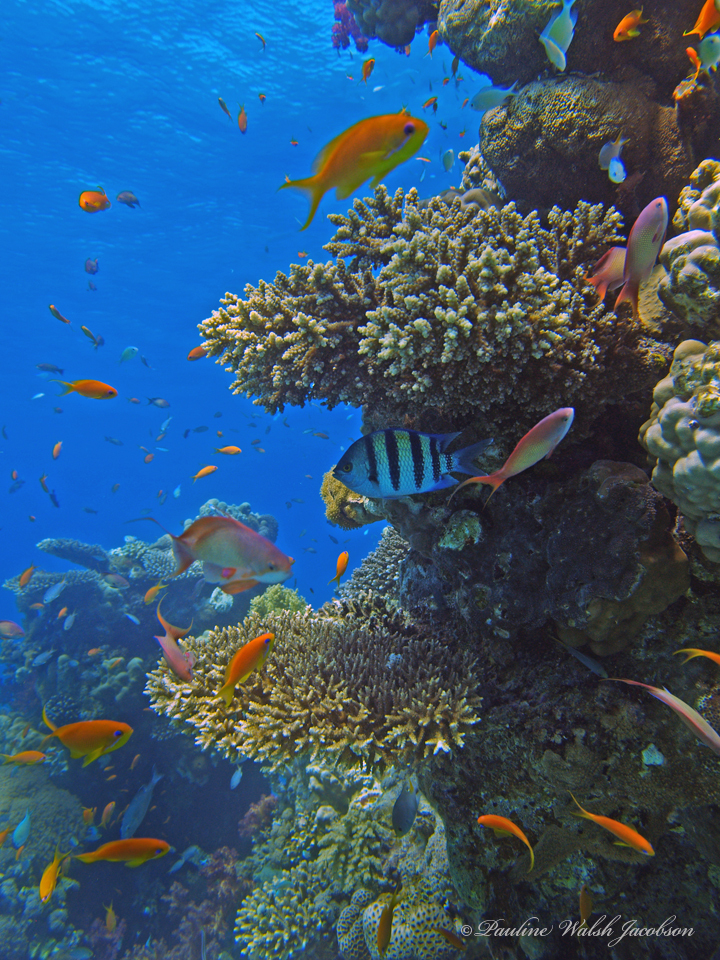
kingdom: Animalia
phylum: Chordata
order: Perciformes
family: Serranidae
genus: Pseudanthias
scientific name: Pseudanthias squamipinnis
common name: Scalefin anthias
